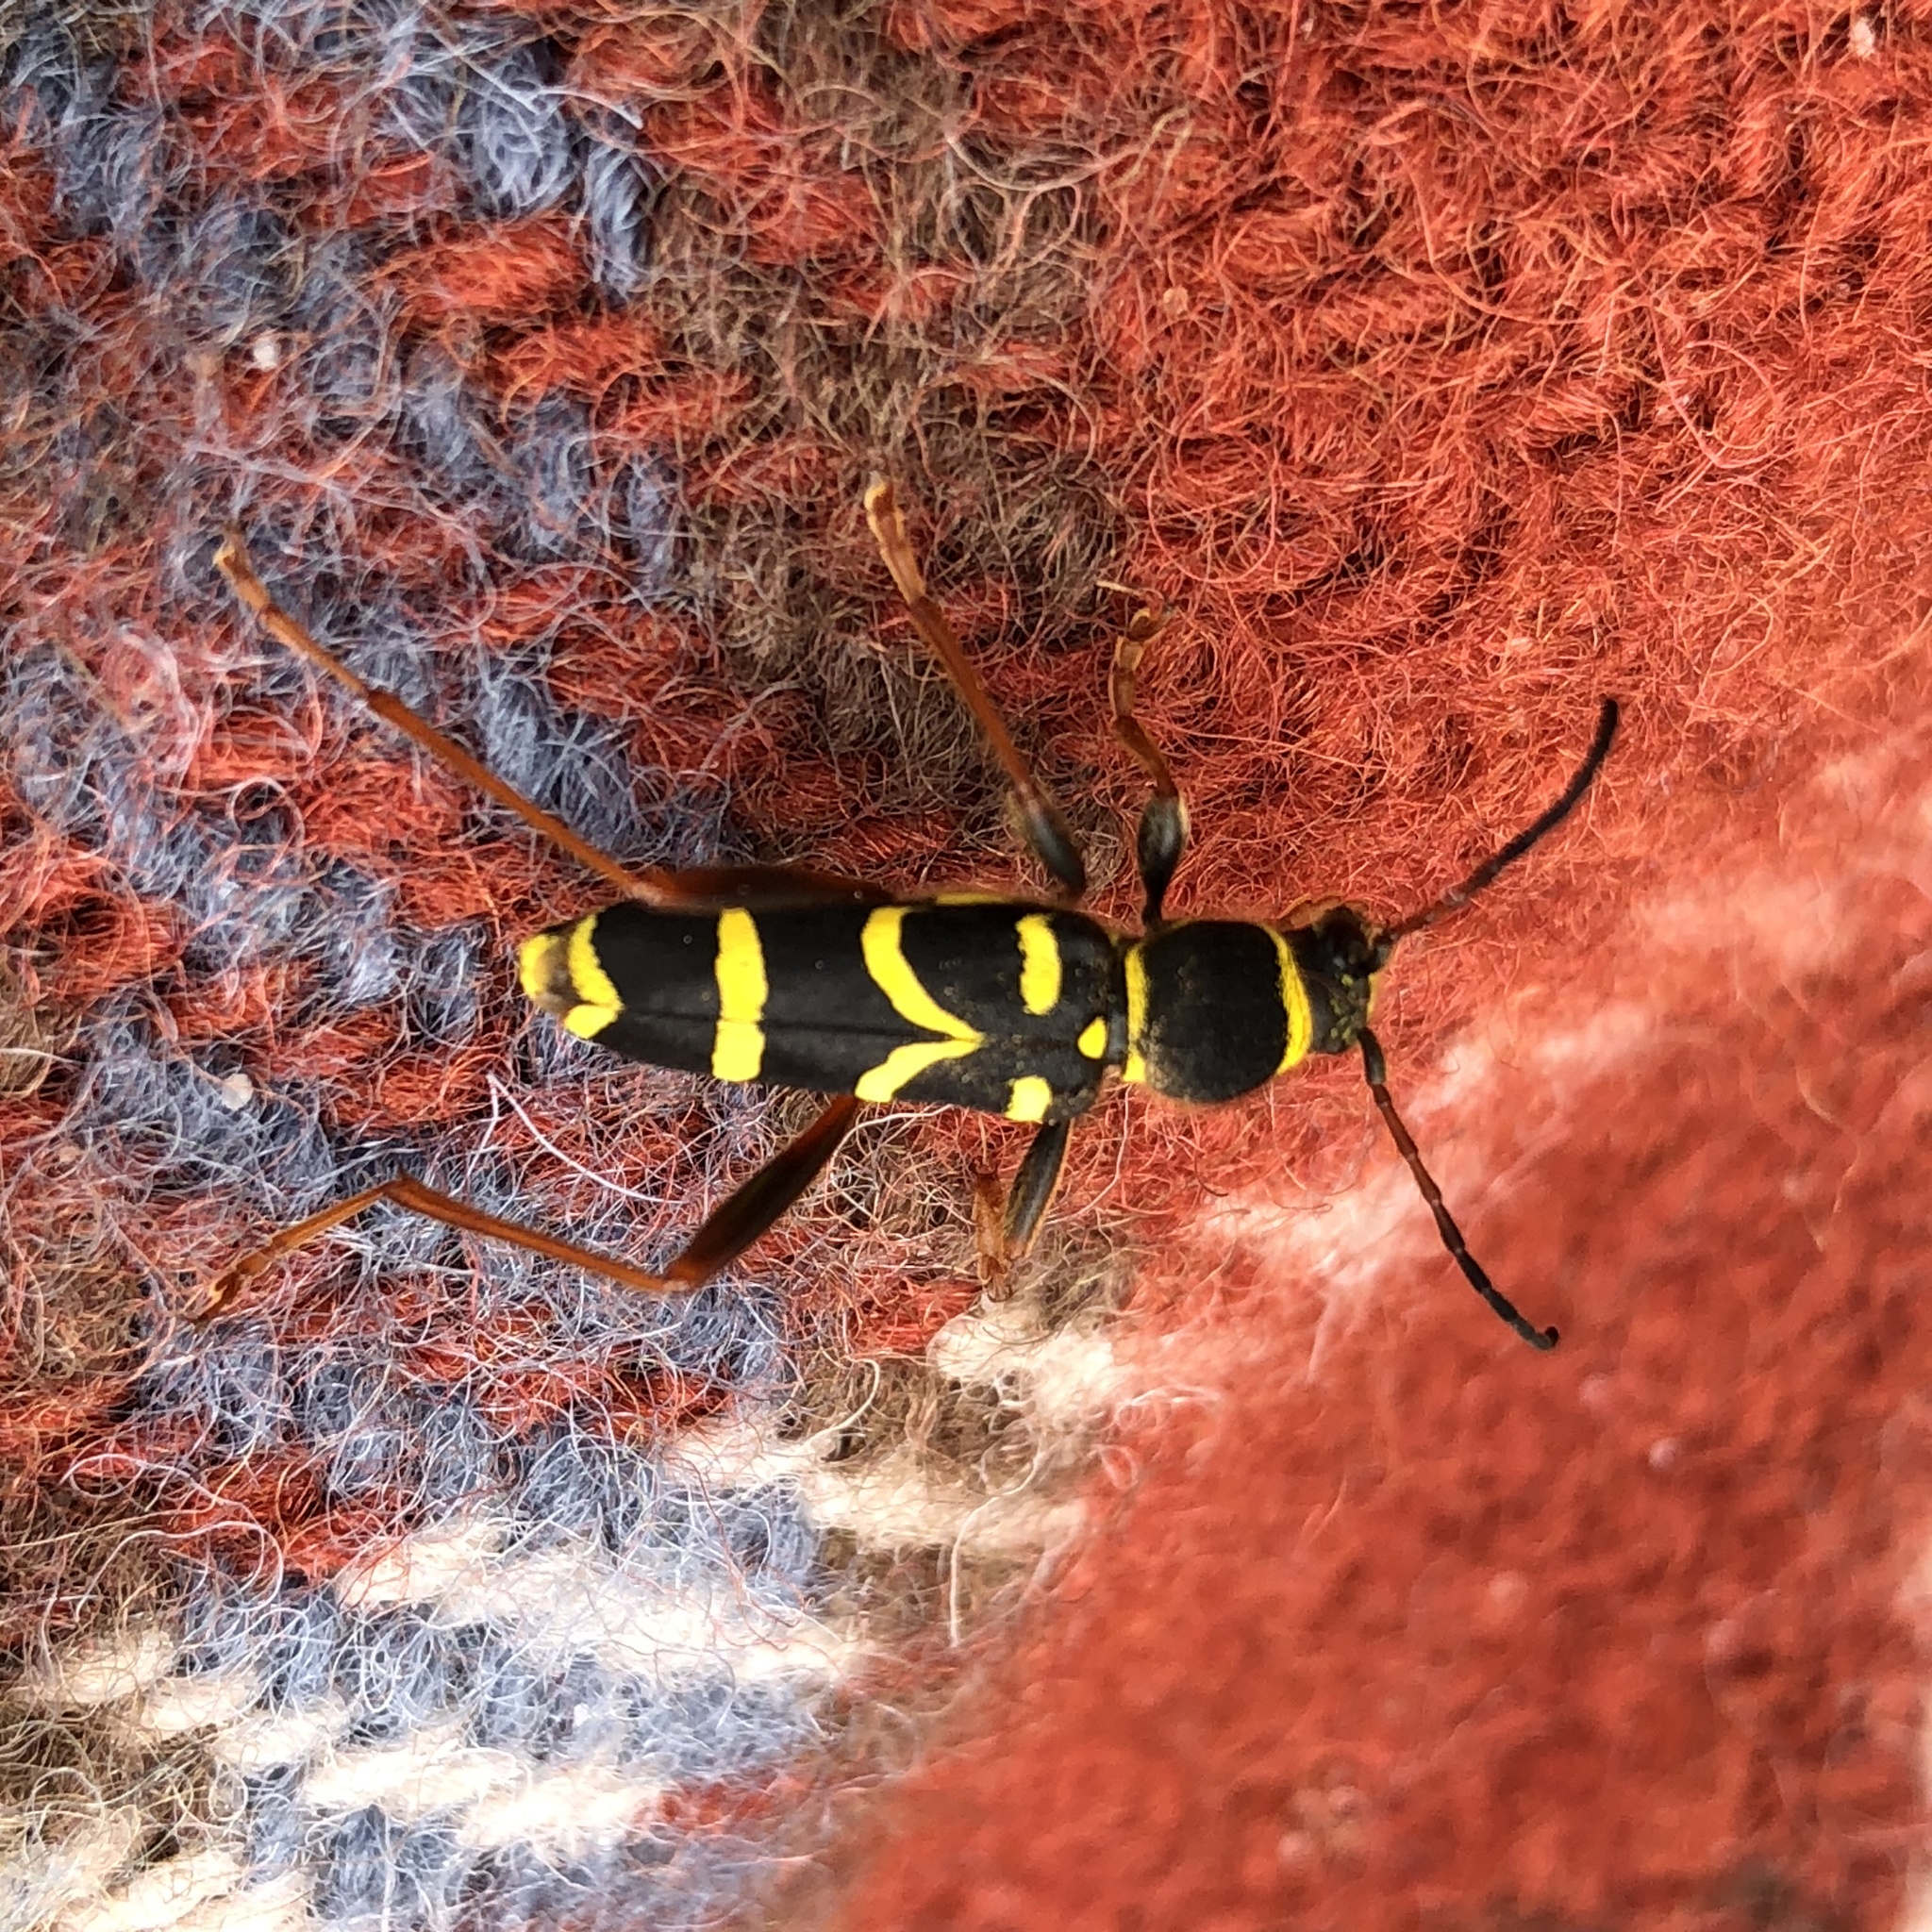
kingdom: Animalia
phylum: Arthropoda
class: Insecta
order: Coleoptera
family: Cerambycidae
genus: Clytus
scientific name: Clytus arietis
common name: Wasp beetle
